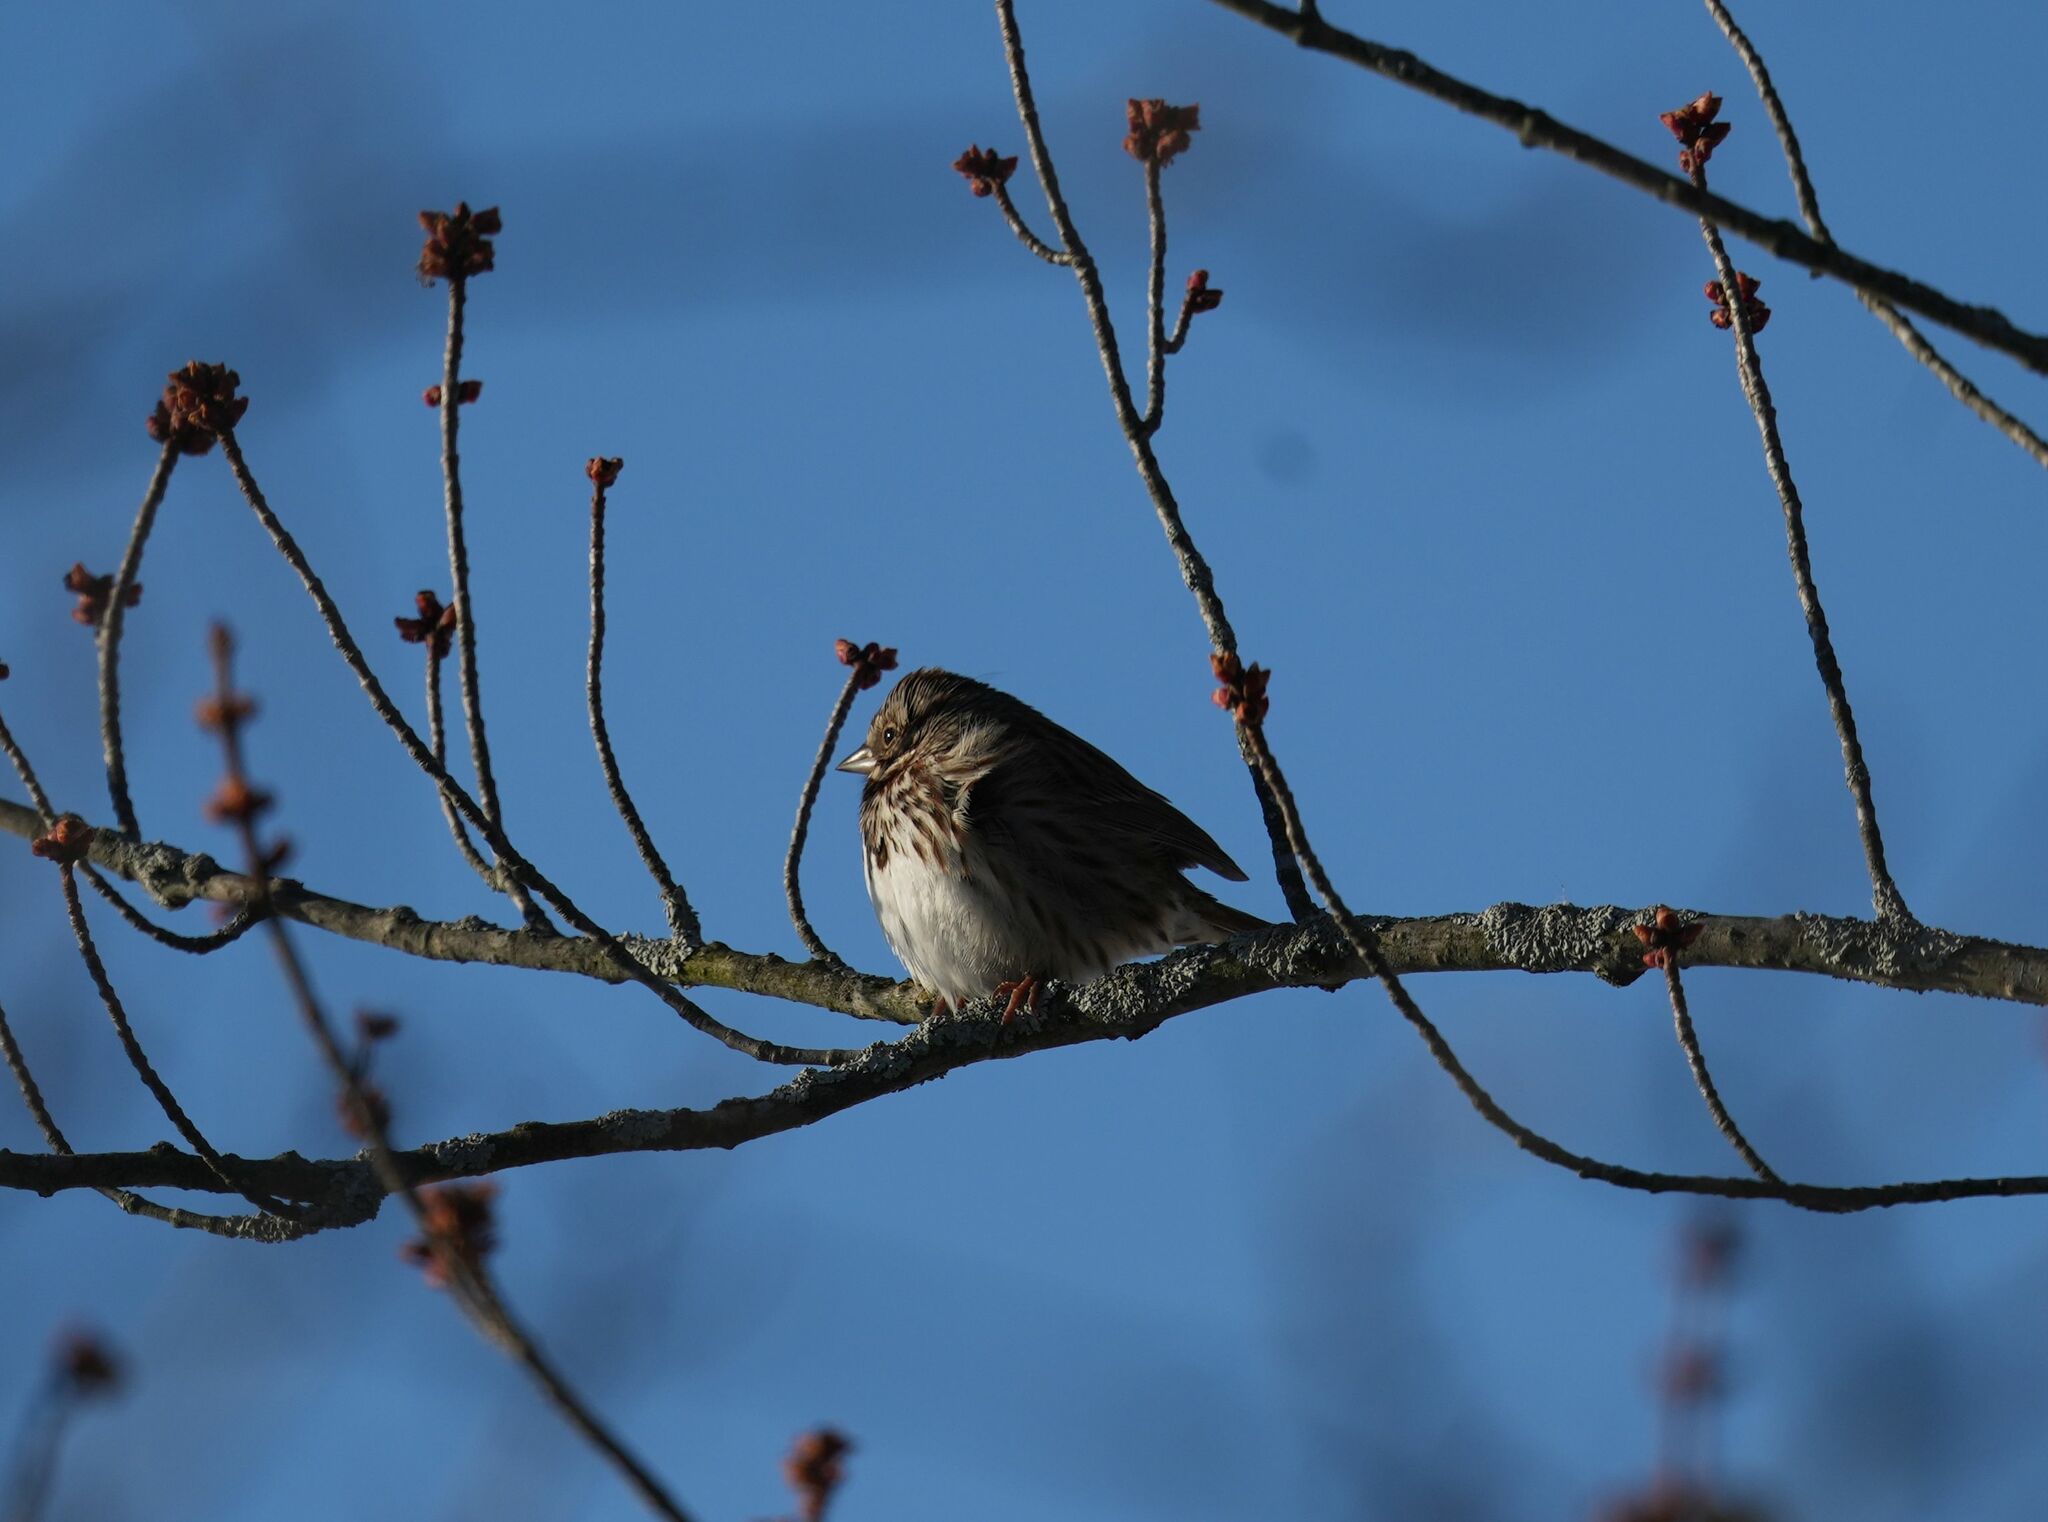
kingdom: Animalia
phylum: Chordata
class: Aves
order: Passeriformes
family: Passerellidae
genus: Melospiza
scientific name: Melospiza melodia
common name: Song sparrow
